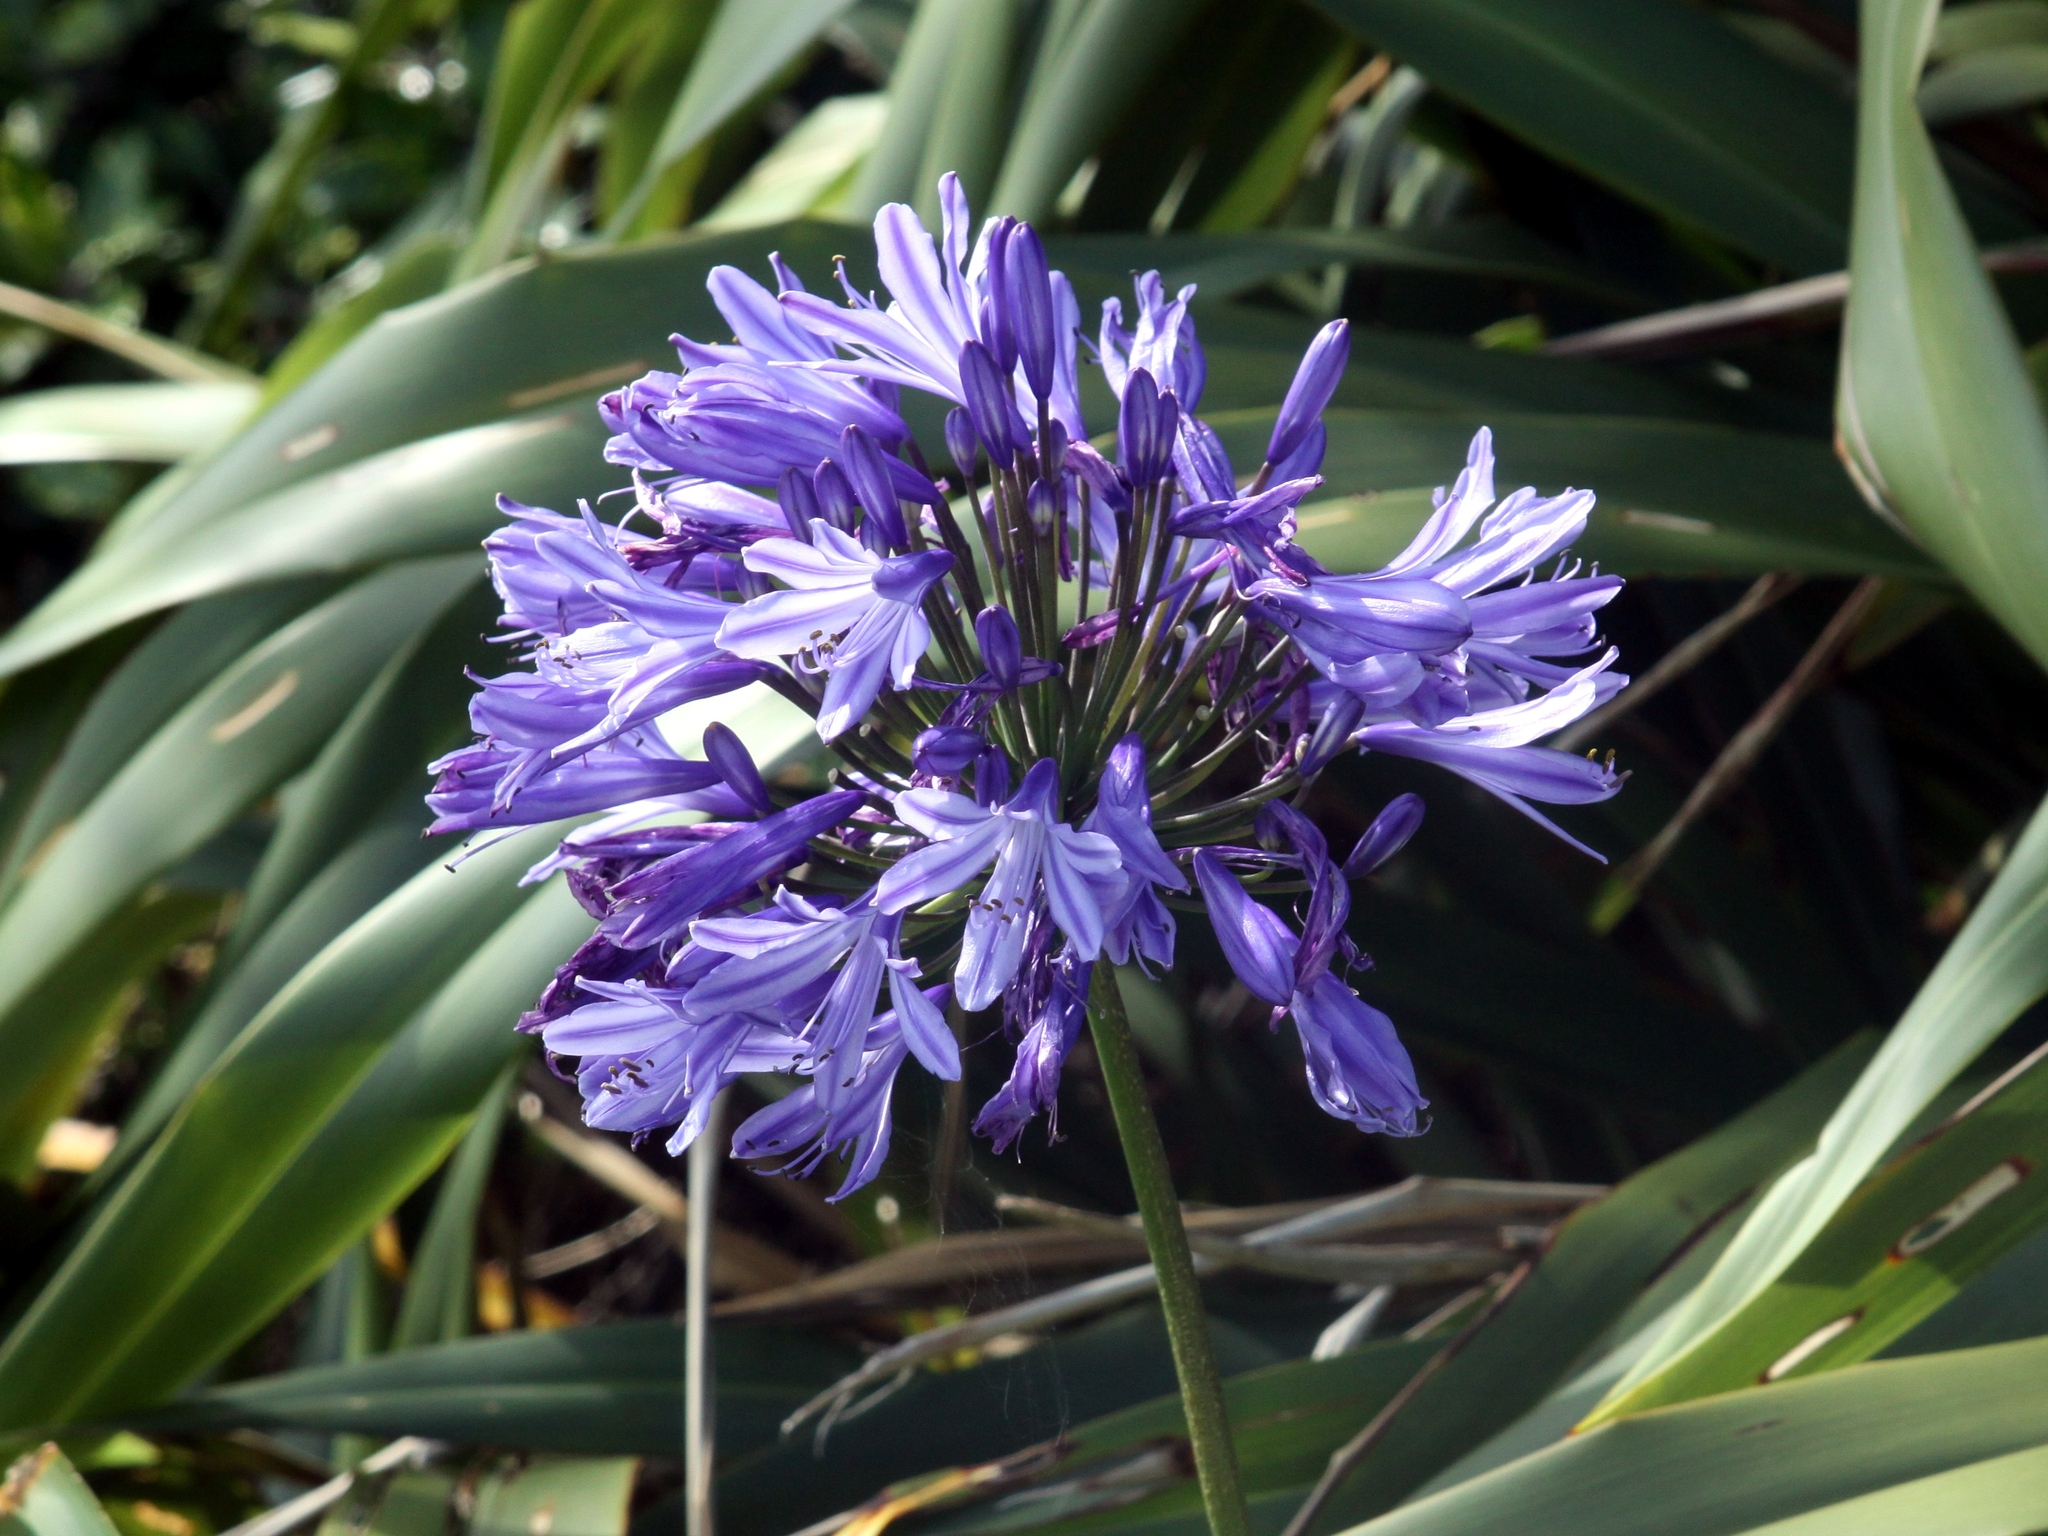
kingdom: Plantae
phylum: Tracheophyta
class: Liliopsida
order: Asparagales
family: Amaryllidaceae
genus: Agapanthus
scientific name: Agapanthus praecox
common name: African-lily
